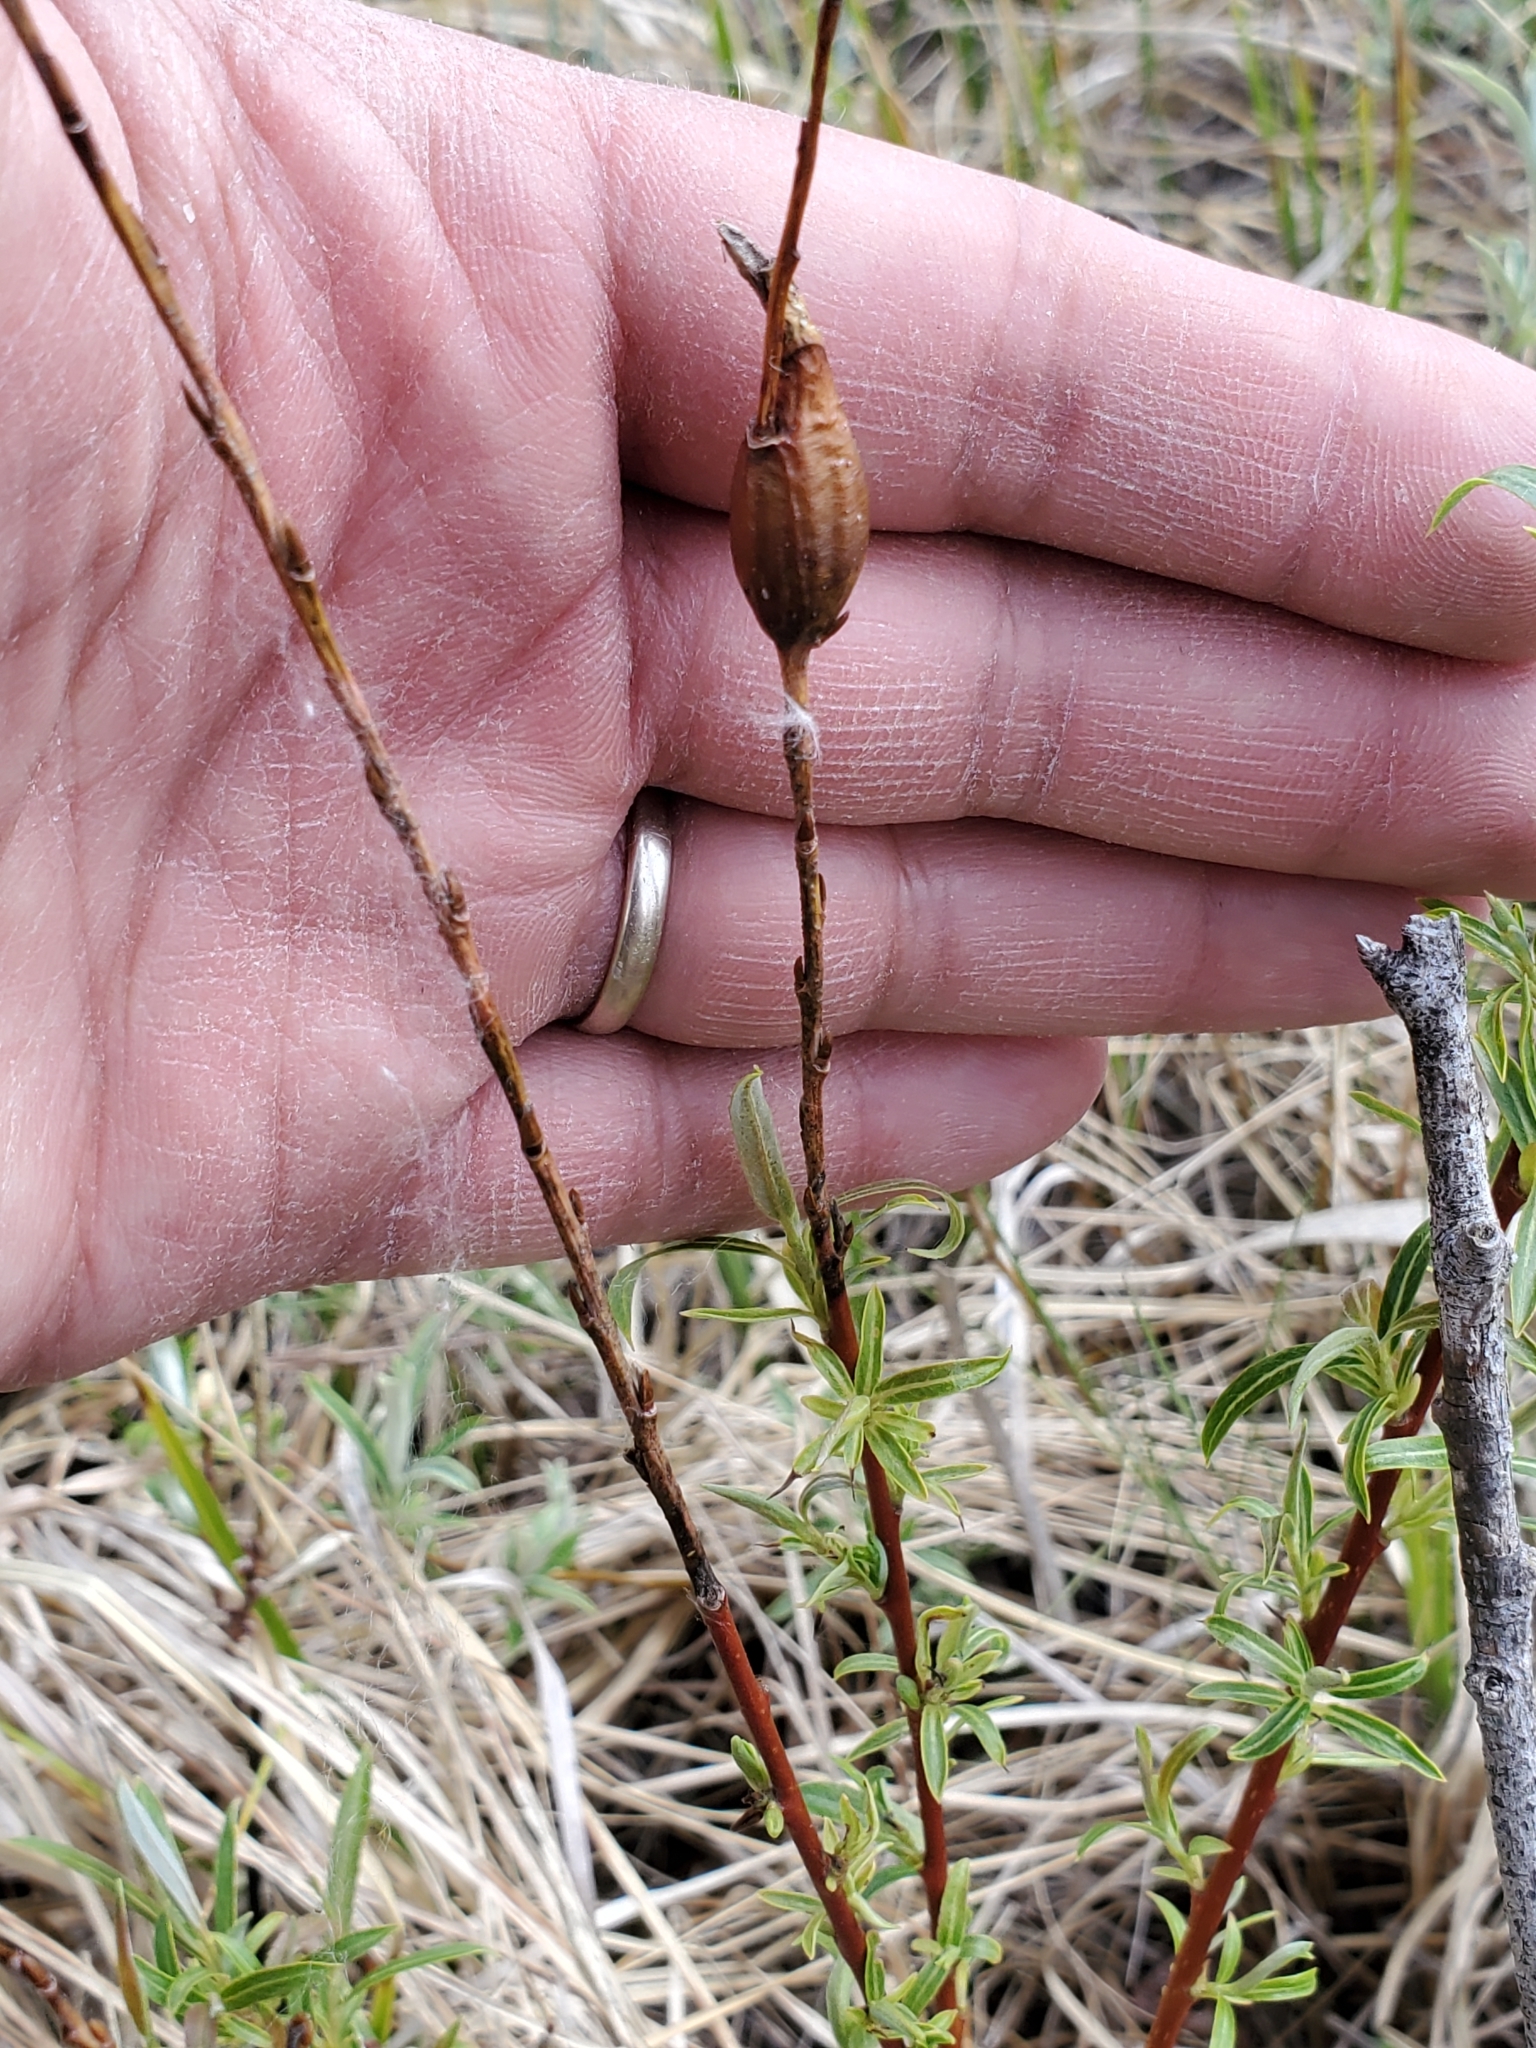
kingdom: Animalia
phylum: Arthropoda
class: Insecta
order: Diptera
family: Cecidomyiidae
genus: Thecodiplosis
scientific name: Thecodiplosis pinirigidae
